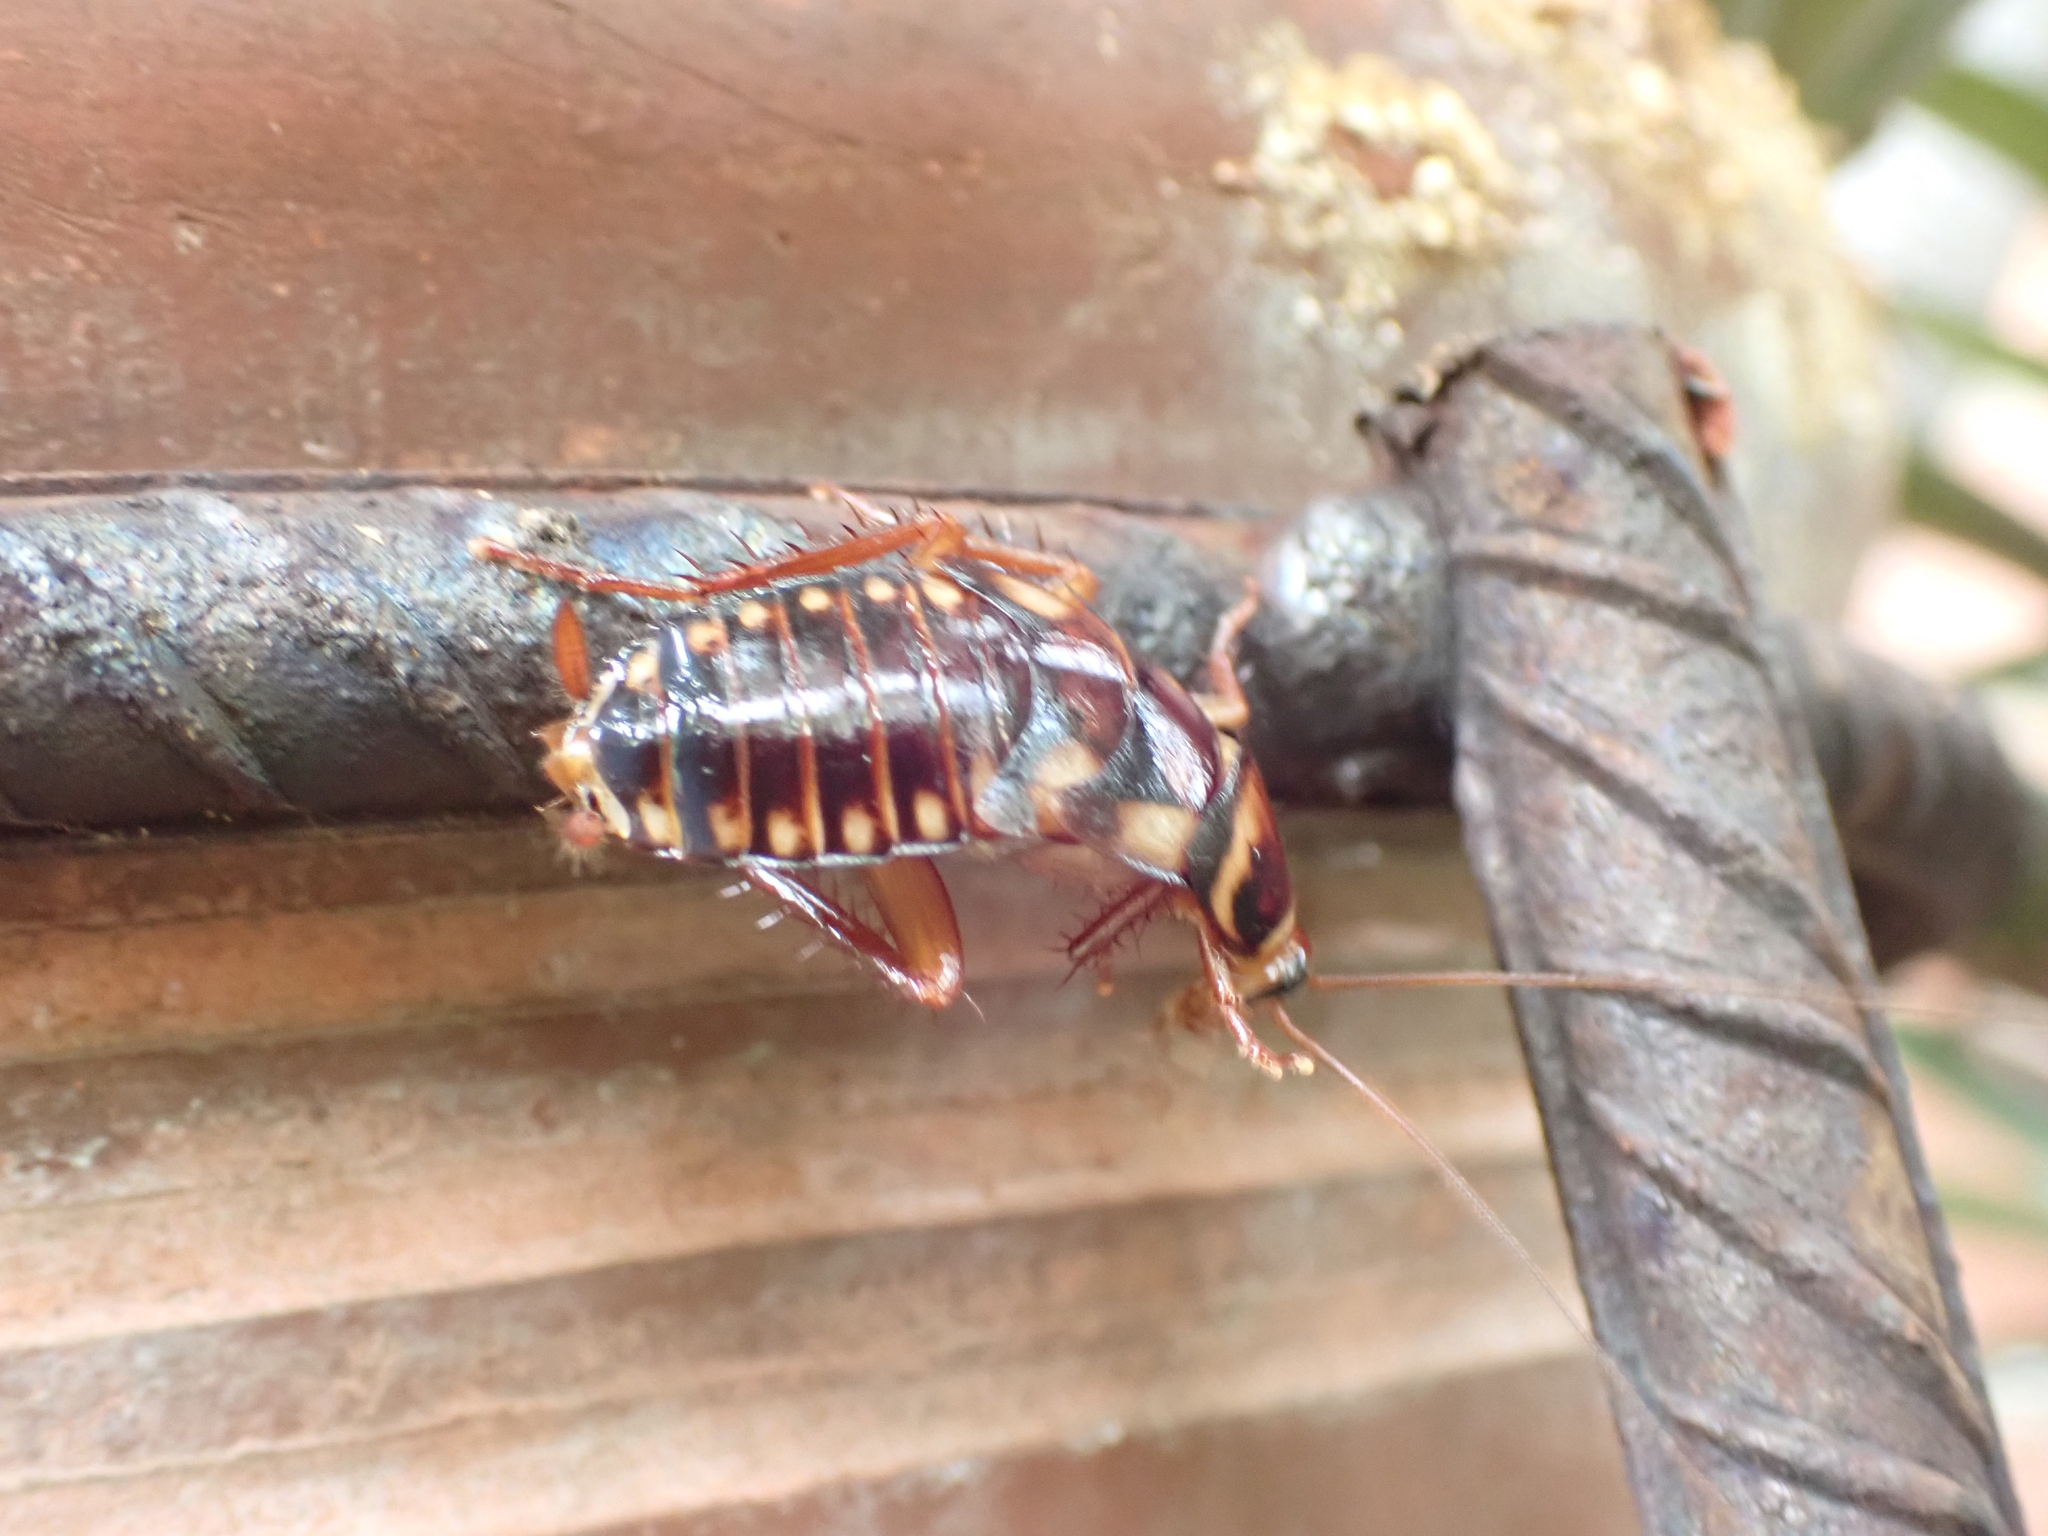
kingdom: Animalia
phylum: Arthropoda
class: Insecta
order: Blattodea
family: Blattidae
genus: Periplaneta
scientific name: Periplaneta australasiae
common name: Australian cockroach
